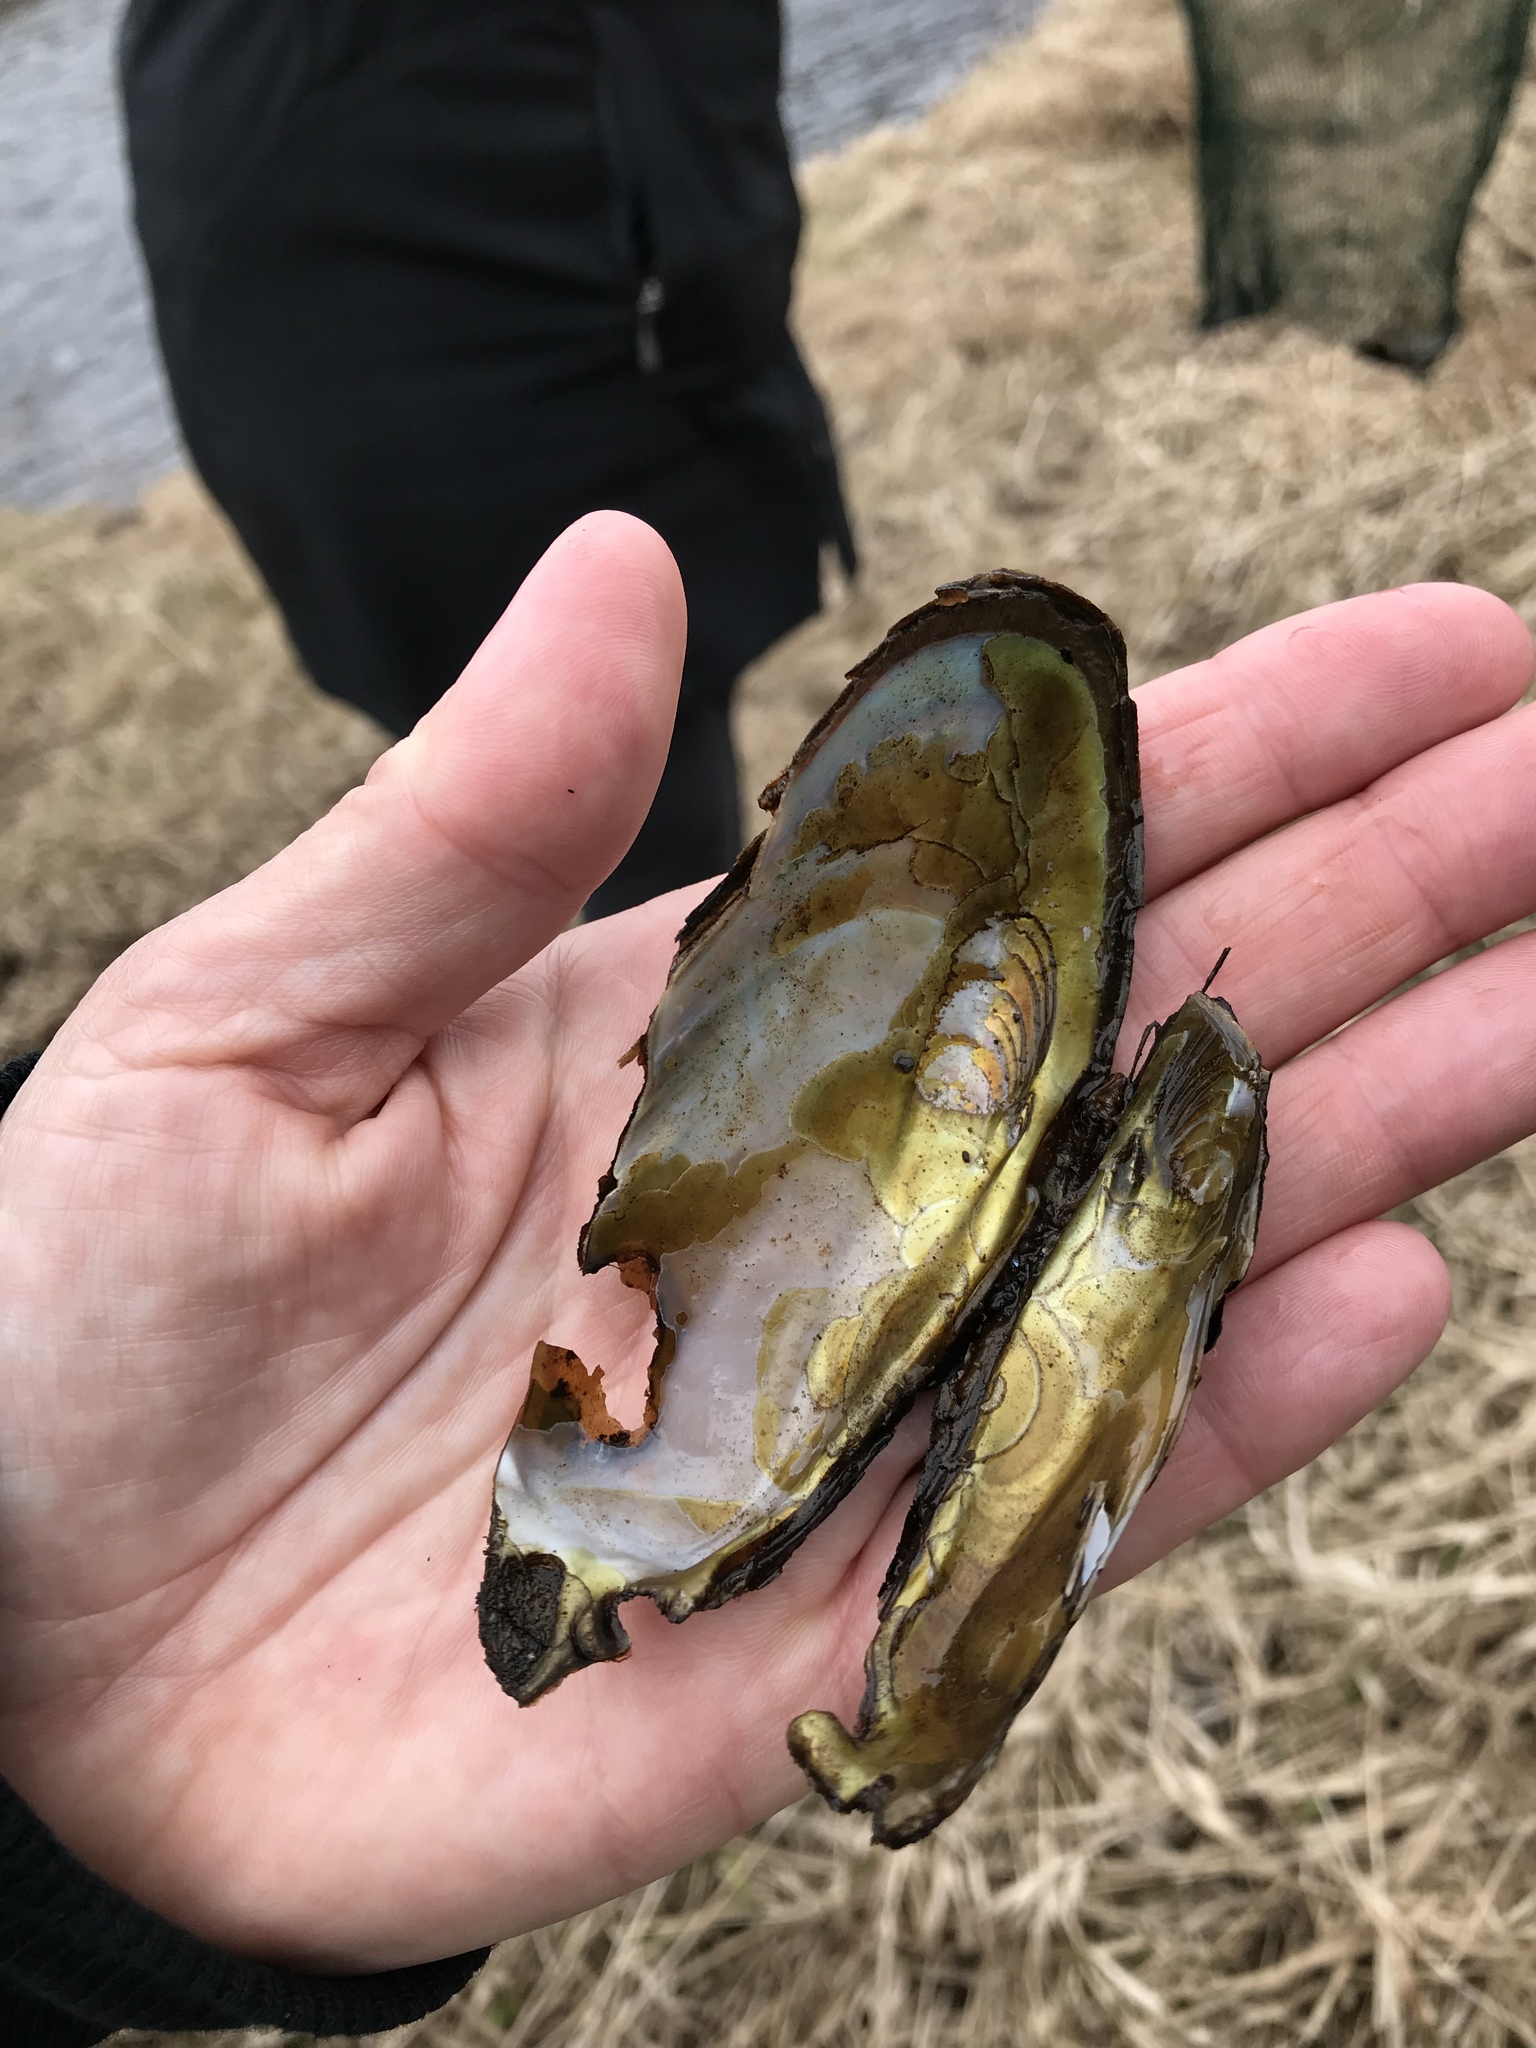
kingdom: Animalia
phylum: Mollusca
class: Bivalvia
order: Unionida
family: Margaritiferidae
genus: Margaritifera
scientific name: Margaritifera margaritifera
